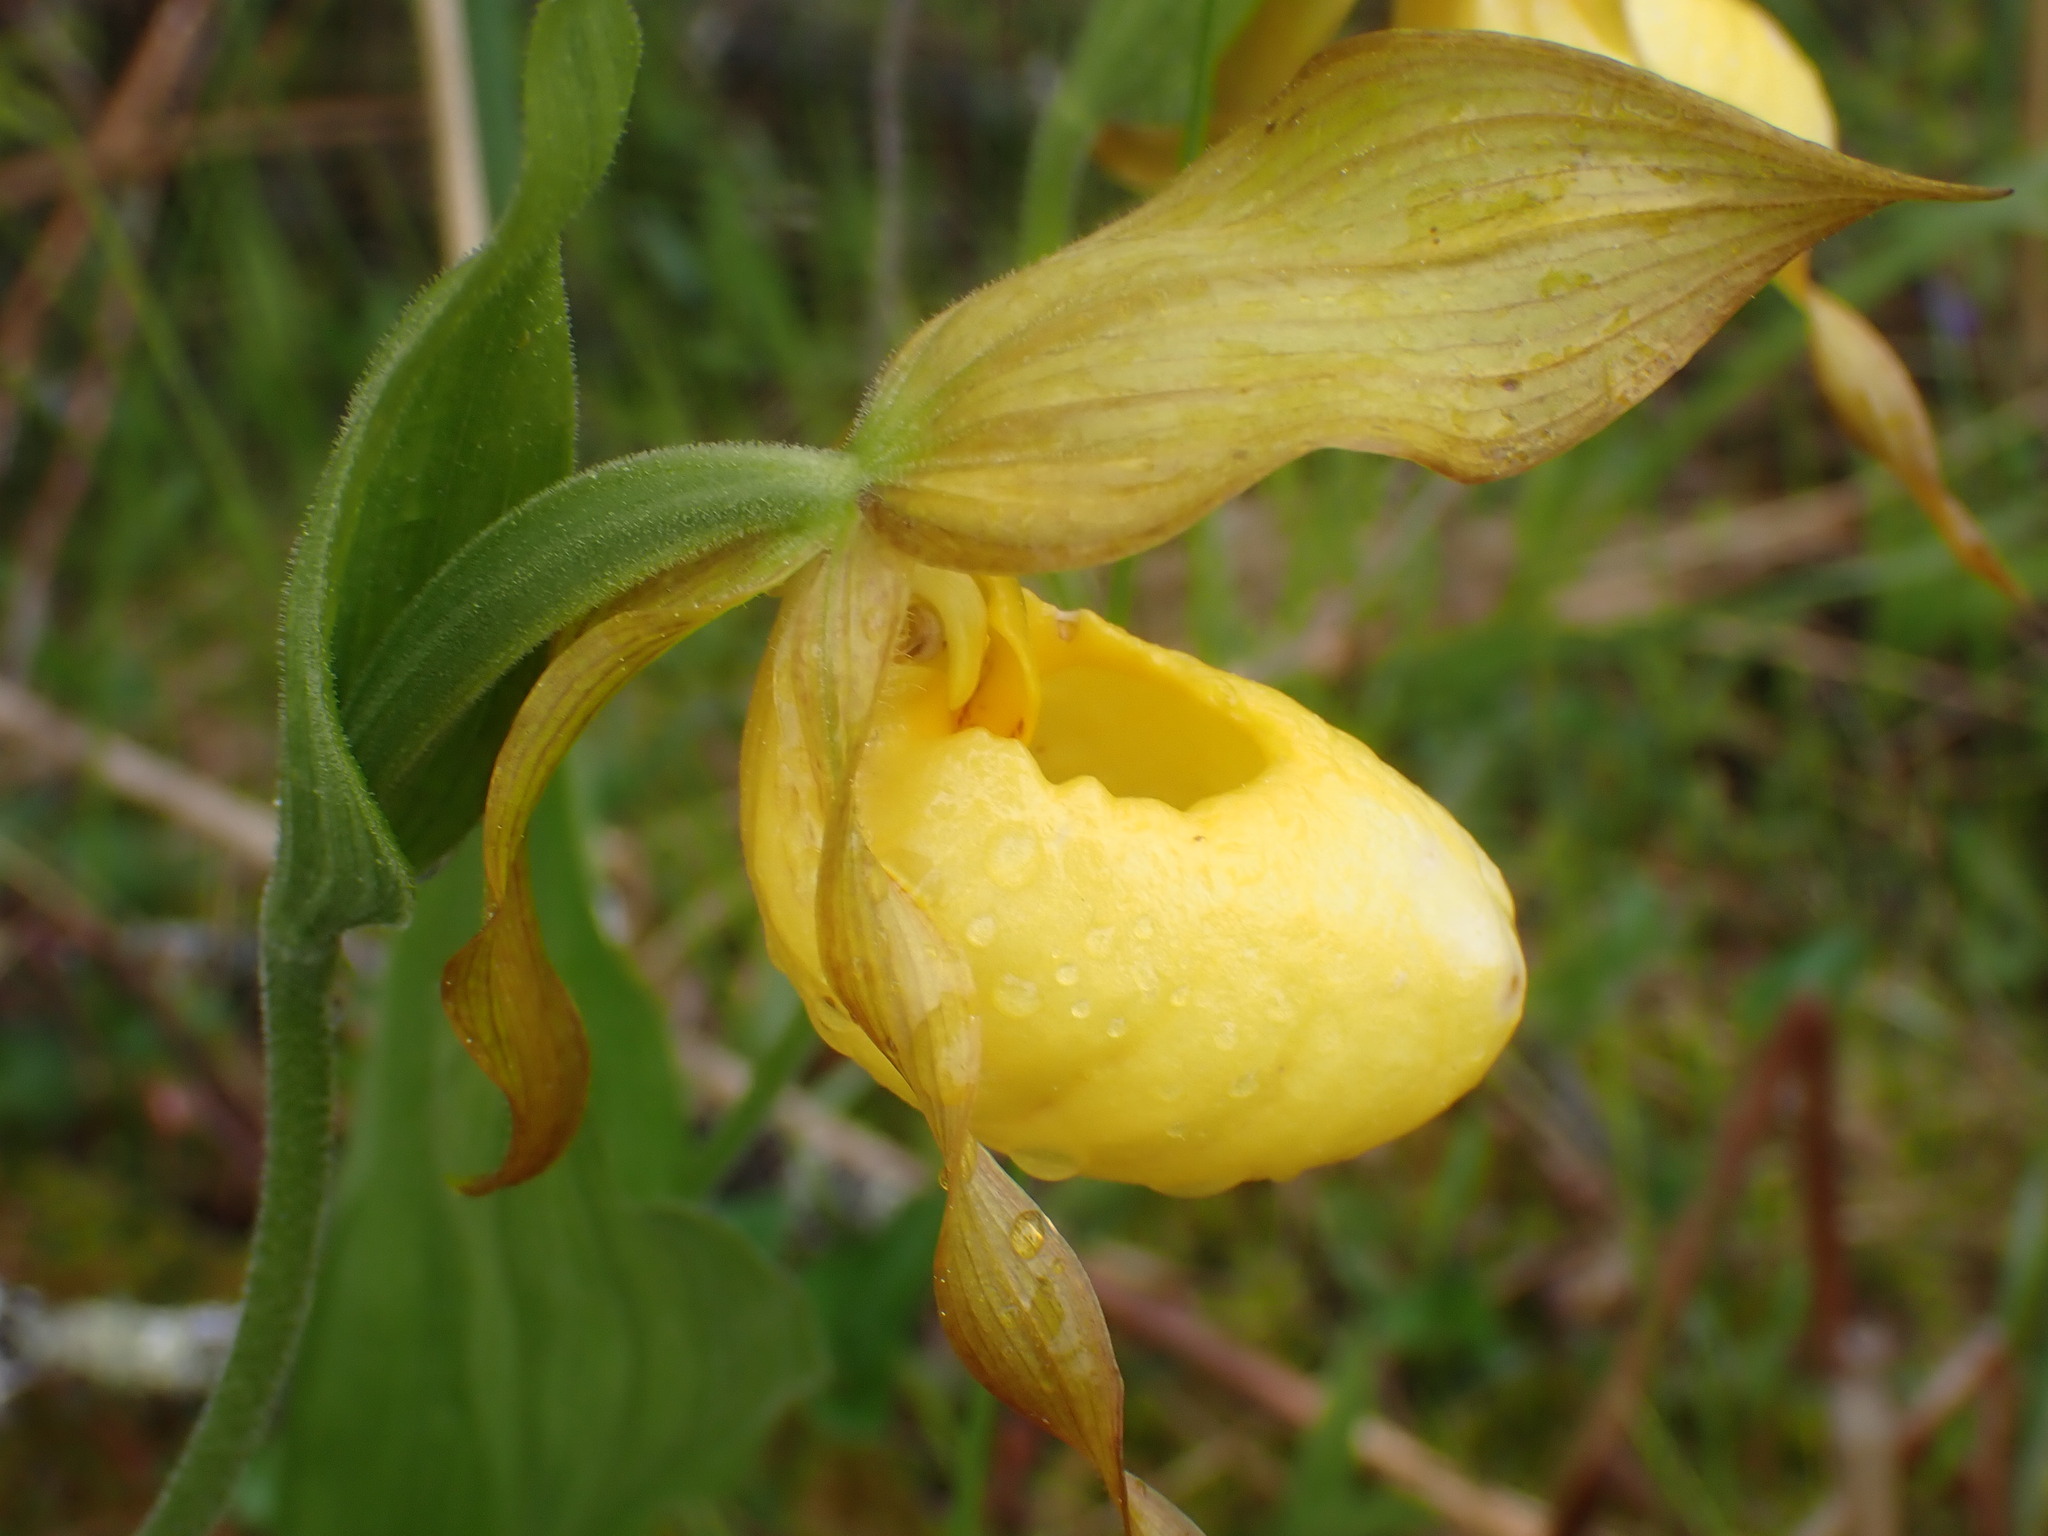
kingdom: Plantae
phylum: Tracheophyta
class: Liliopsida
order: Asparagales
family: Orchidaceae
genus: Cypripedium
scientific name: Cypripedium parviflorum
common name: American yellow lady's-slipper
